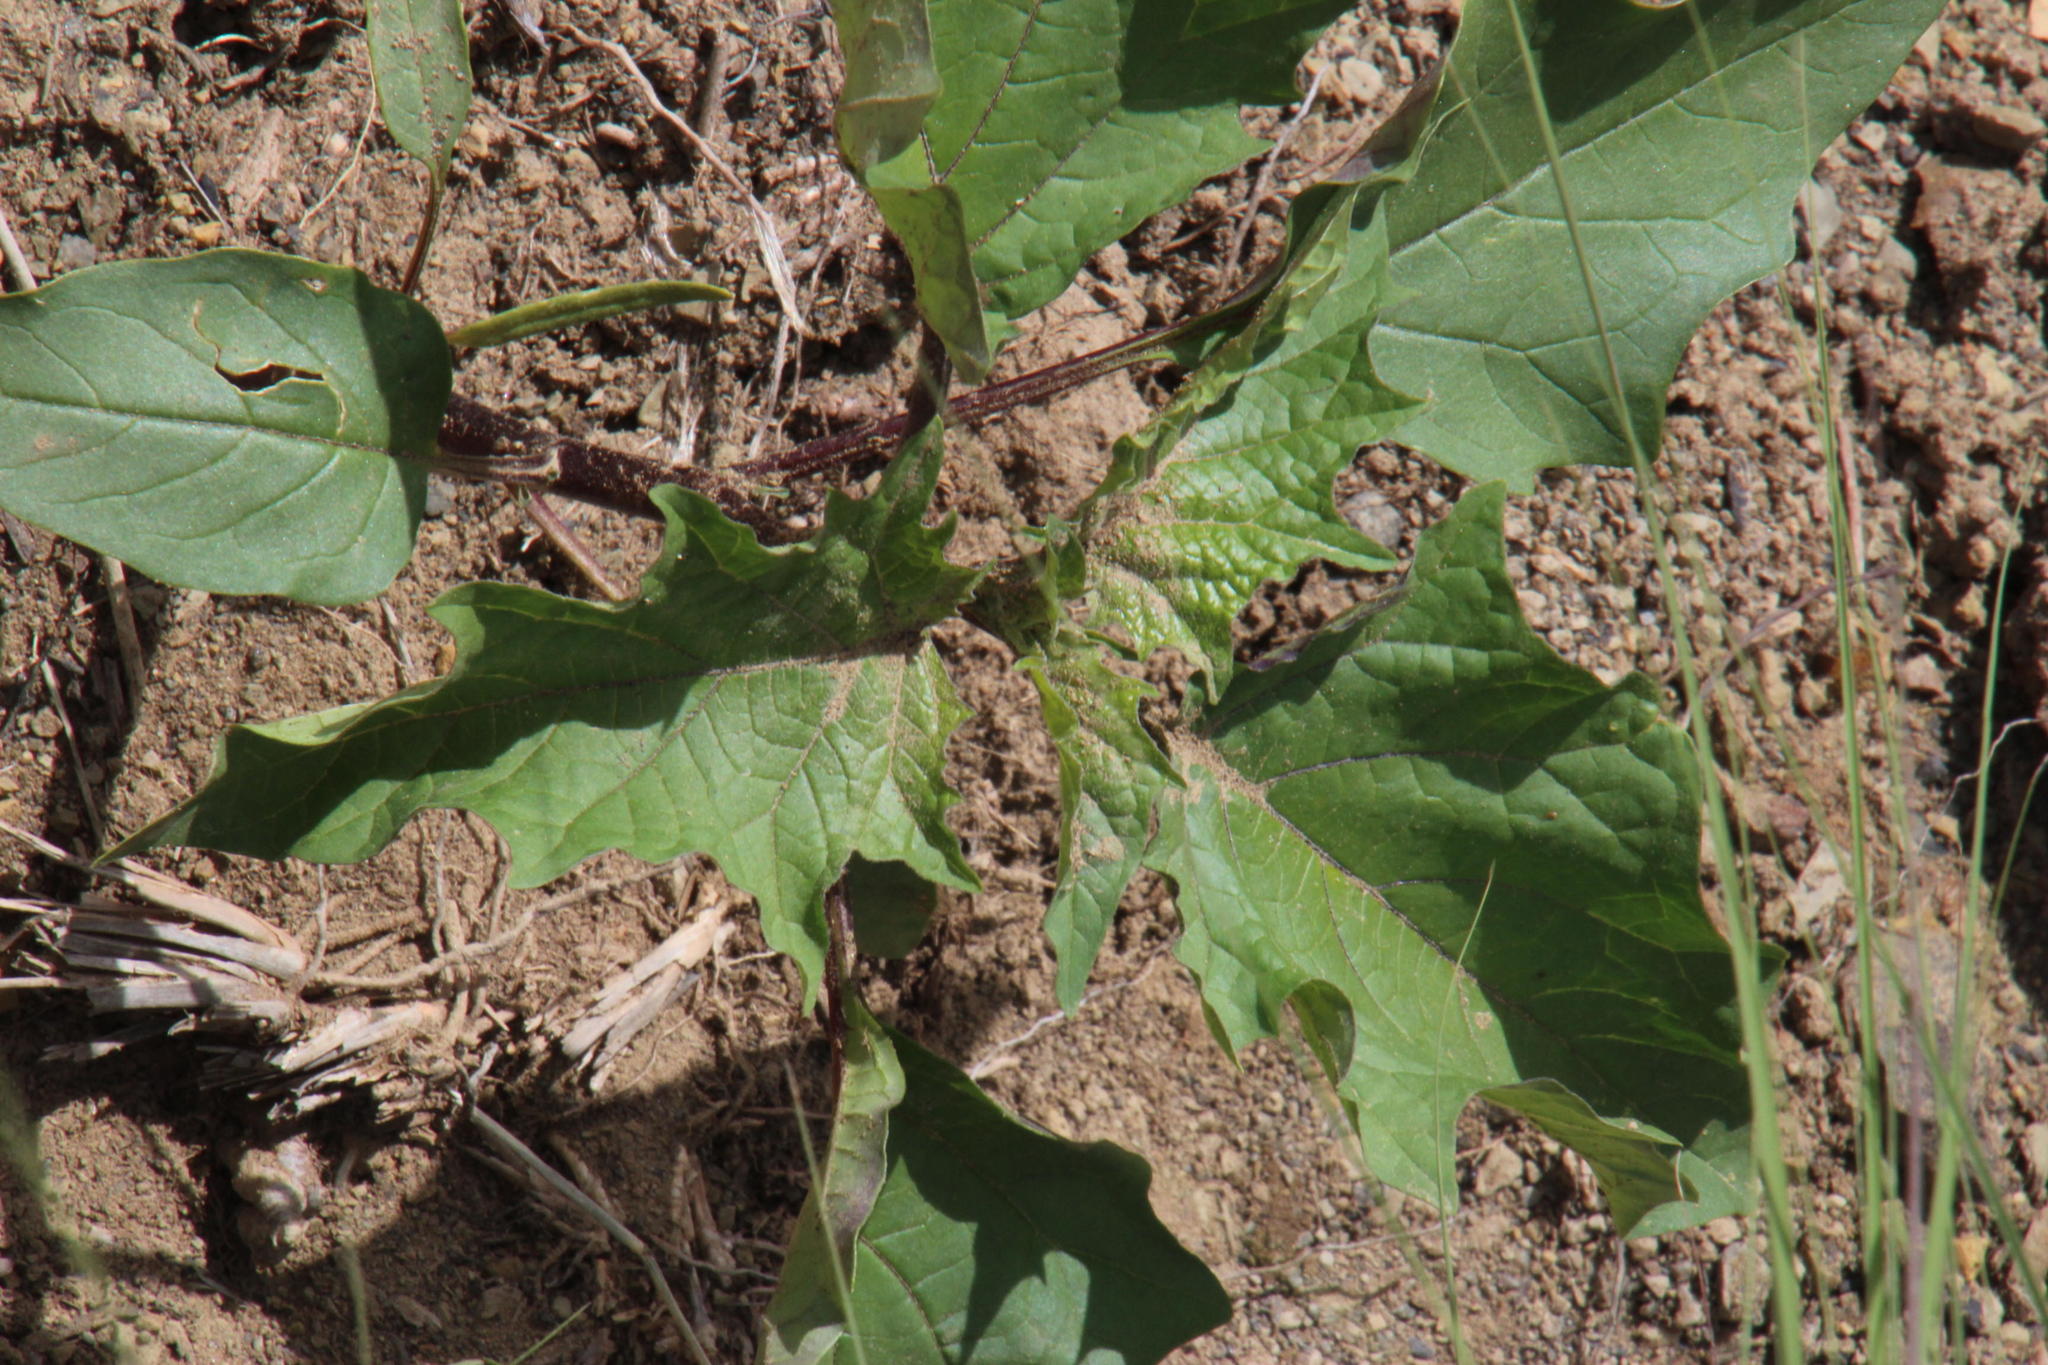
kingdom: Plantae
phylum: Tracheophyta
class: Magnoliopsida
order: Solanales
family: Solanaceae
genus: Datura
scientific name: Datura stramonium
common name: Thorn-apple
